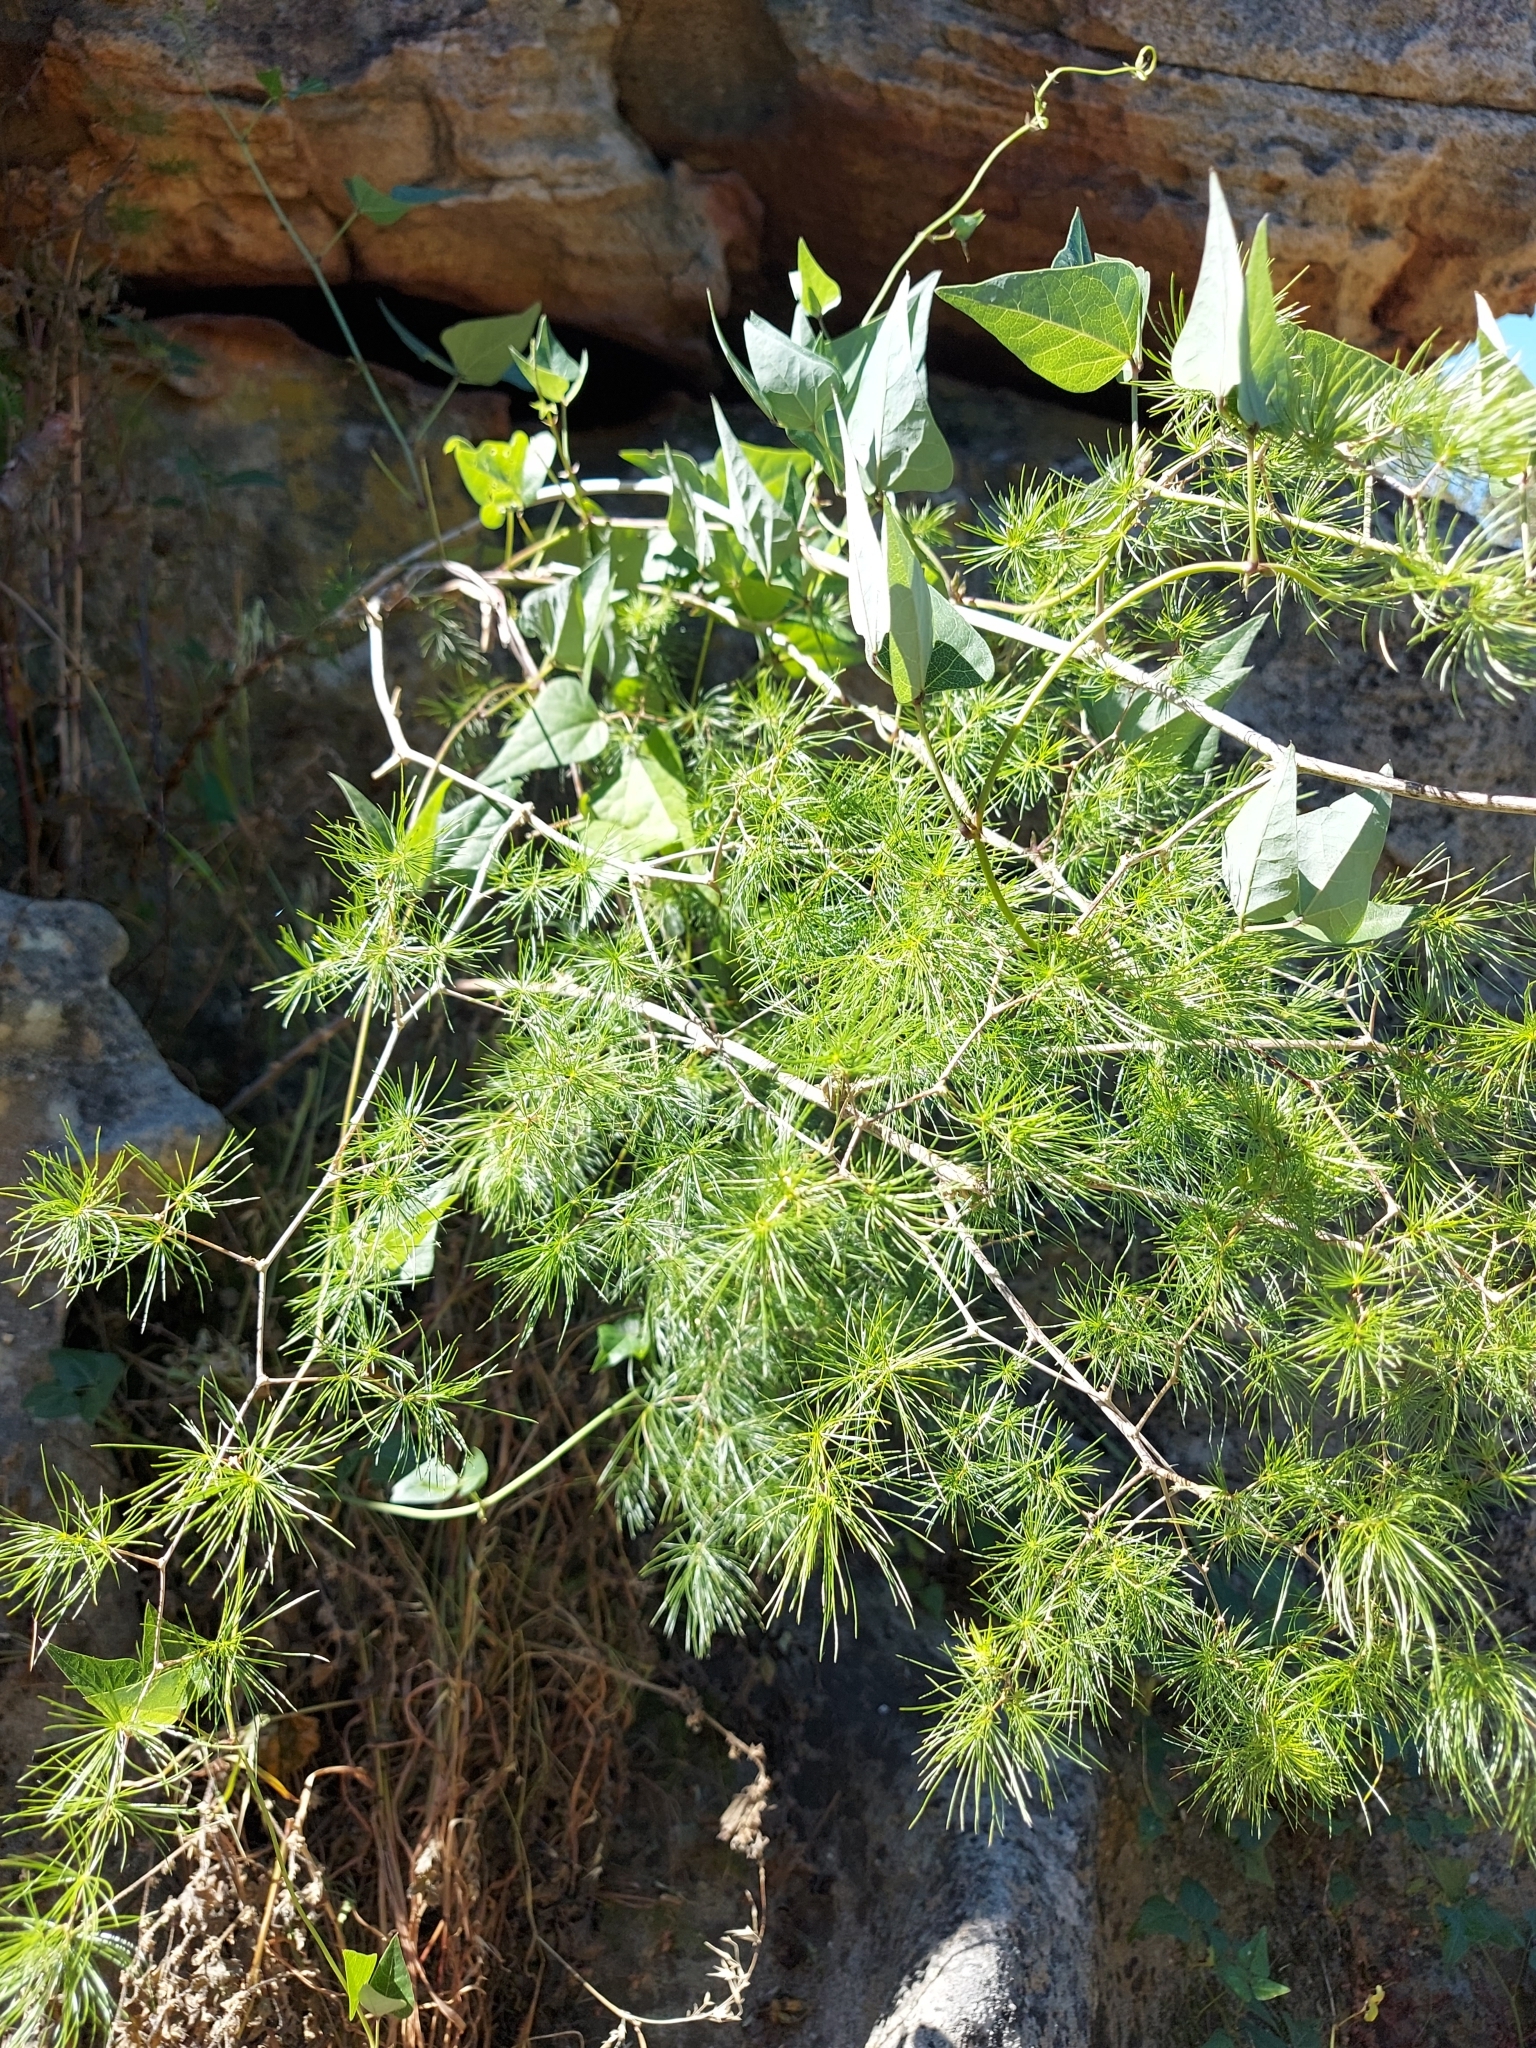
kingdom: Plantae
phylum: Tracheophyta
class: Liliopsida
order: Asparagales
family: Asparagaceae
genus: Asparagus
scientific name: Asparagus retrofractus
